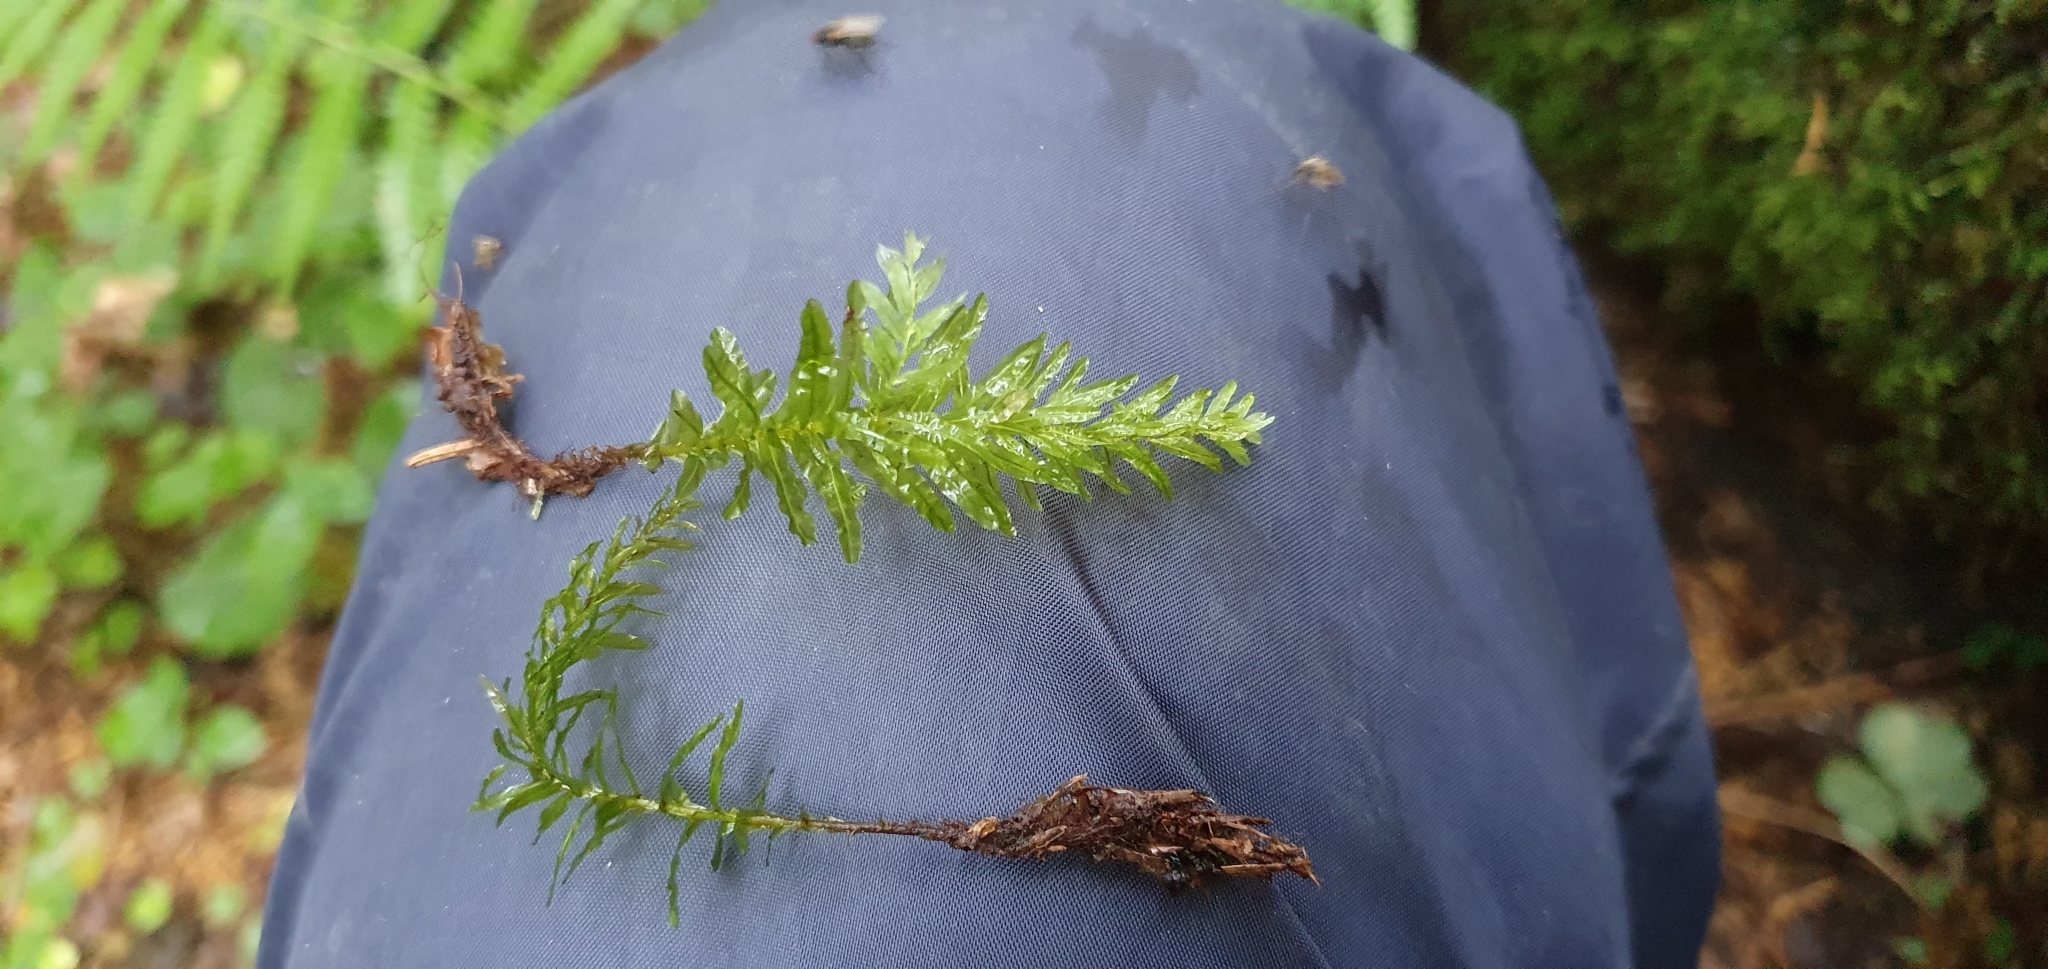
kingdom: Plantae
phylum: Bryophyta
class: Bryopsida
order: Bryales
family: Mniaceae
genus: Plagiomnium
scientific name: Plagiomnium undulatum
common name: Hart's-tongue thyme-moss
